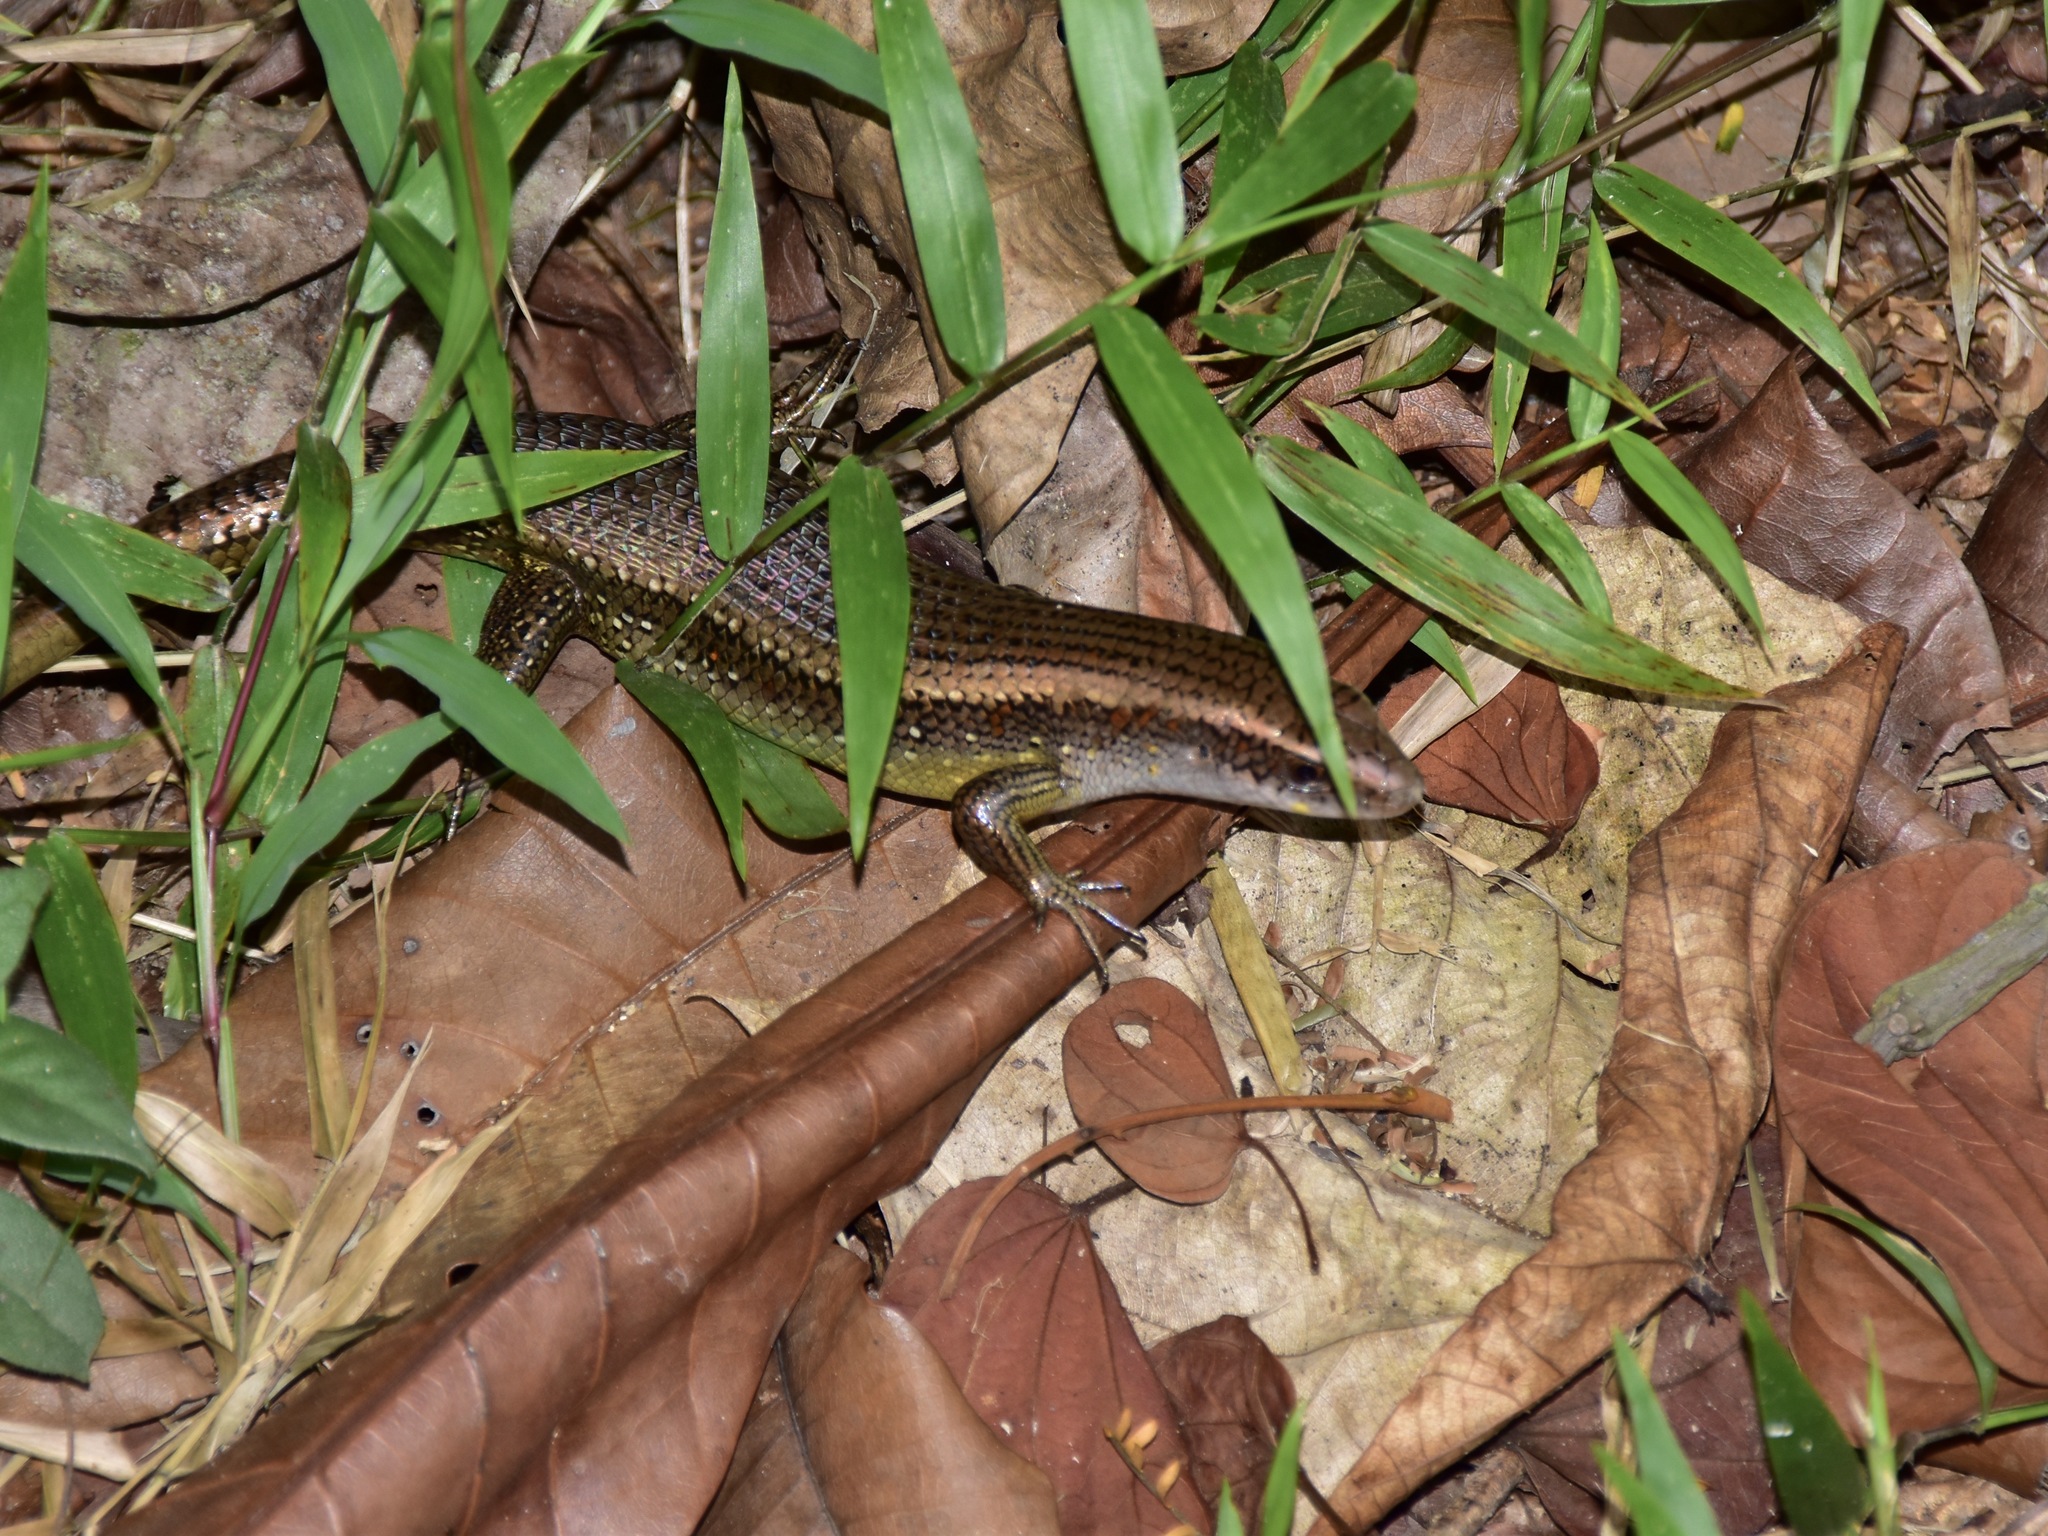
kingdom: Animalia
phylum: Chordata
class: Squamata
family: Scincidae
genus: Eutropis
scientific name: Eutropis multifasciata
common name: Common mabuya
